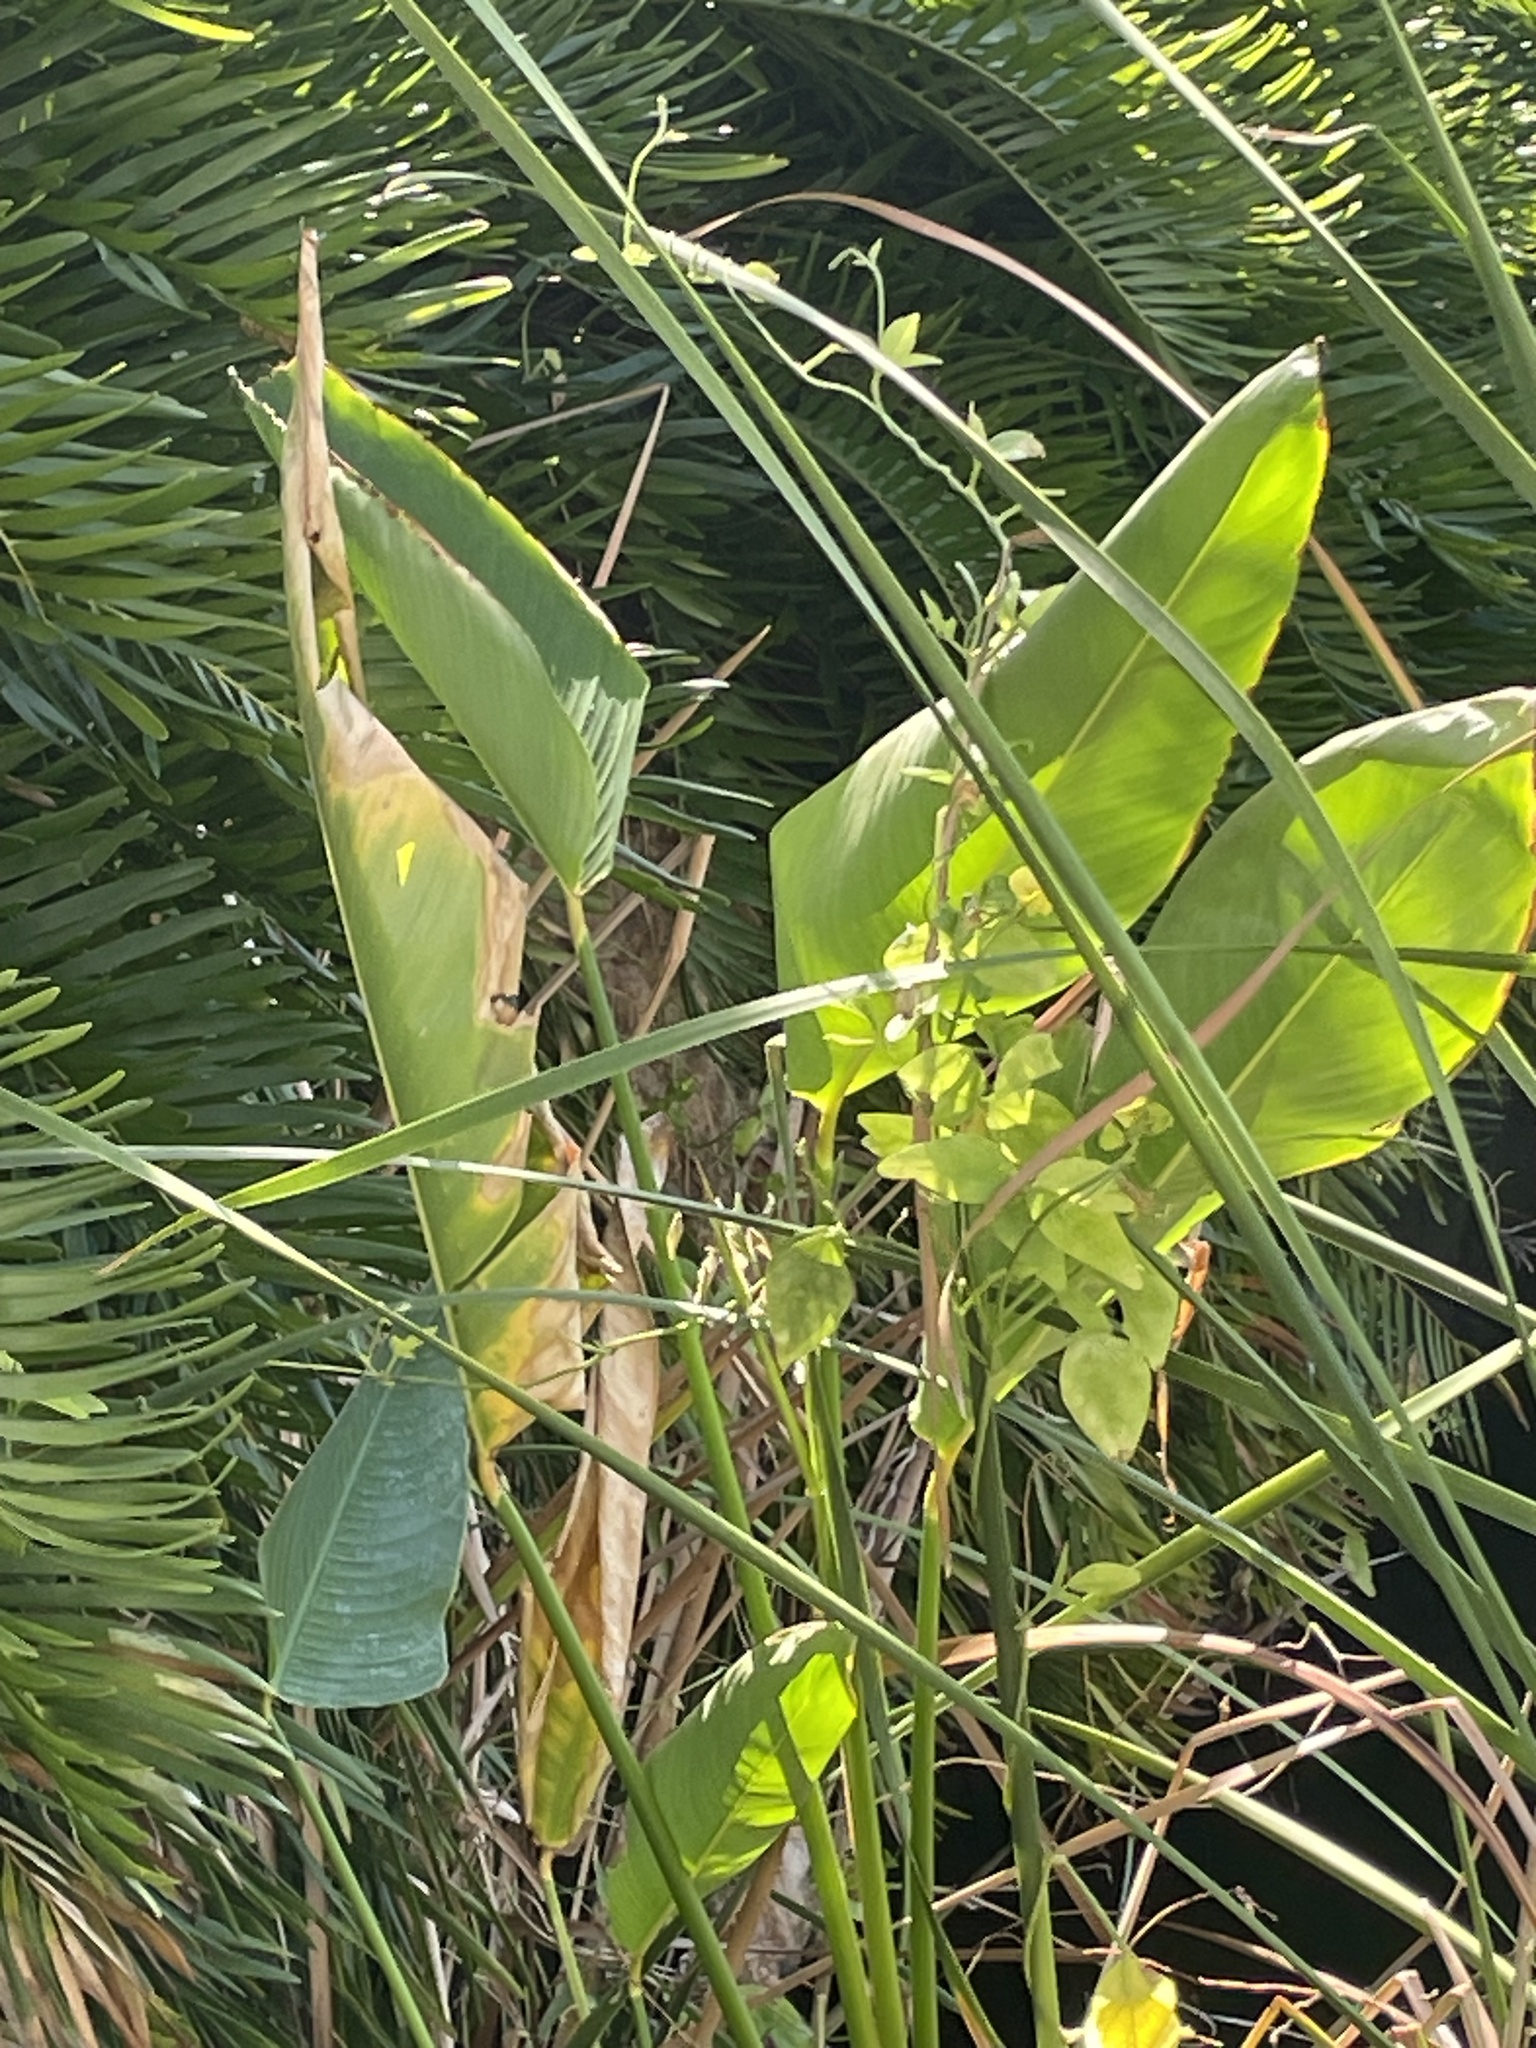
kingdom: Plantae
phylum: Tracheophyta
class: Liliopsida
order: Zingiberales
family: Marantaceae
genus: Thalia
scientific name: Thalia geniculata
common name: Arrowroot
